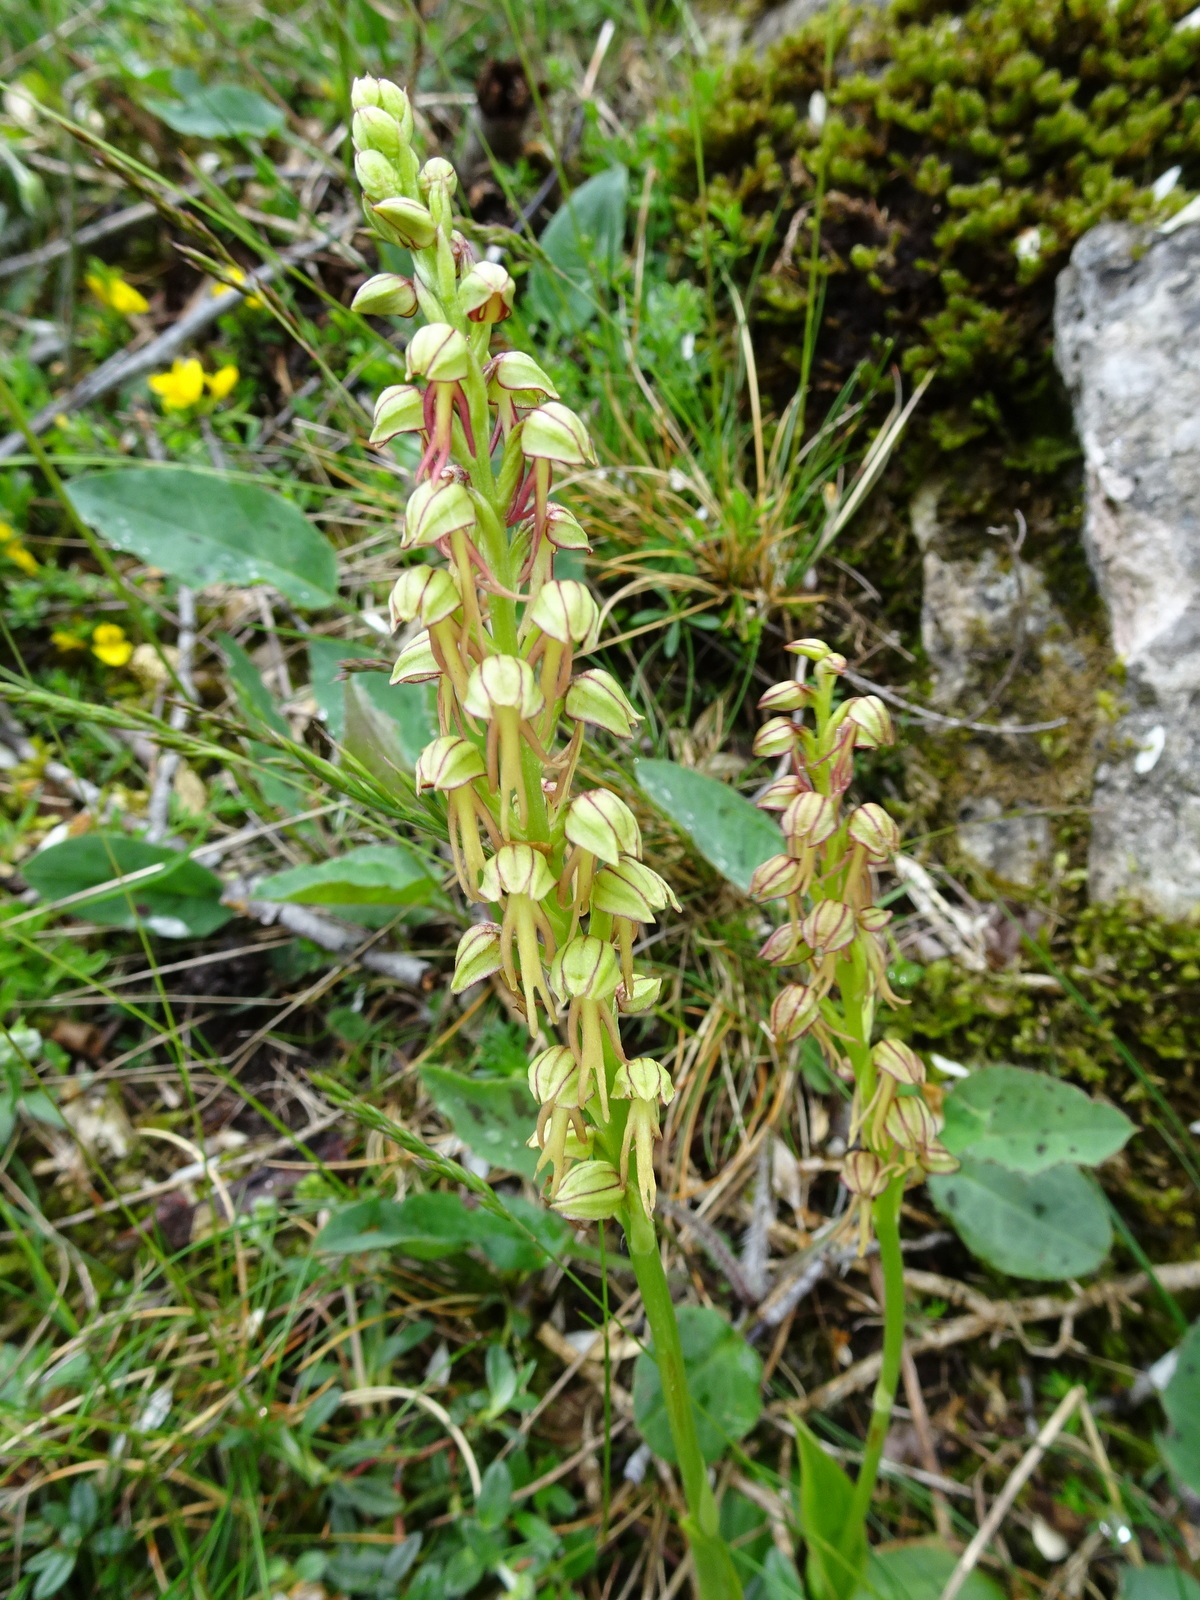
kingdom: Plantae
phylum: Tracheophyta
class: Liliopsida
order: Asparagales
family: Orchidaceae
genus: Orchis
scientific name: Orchis anthropophora
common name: Man orchid
